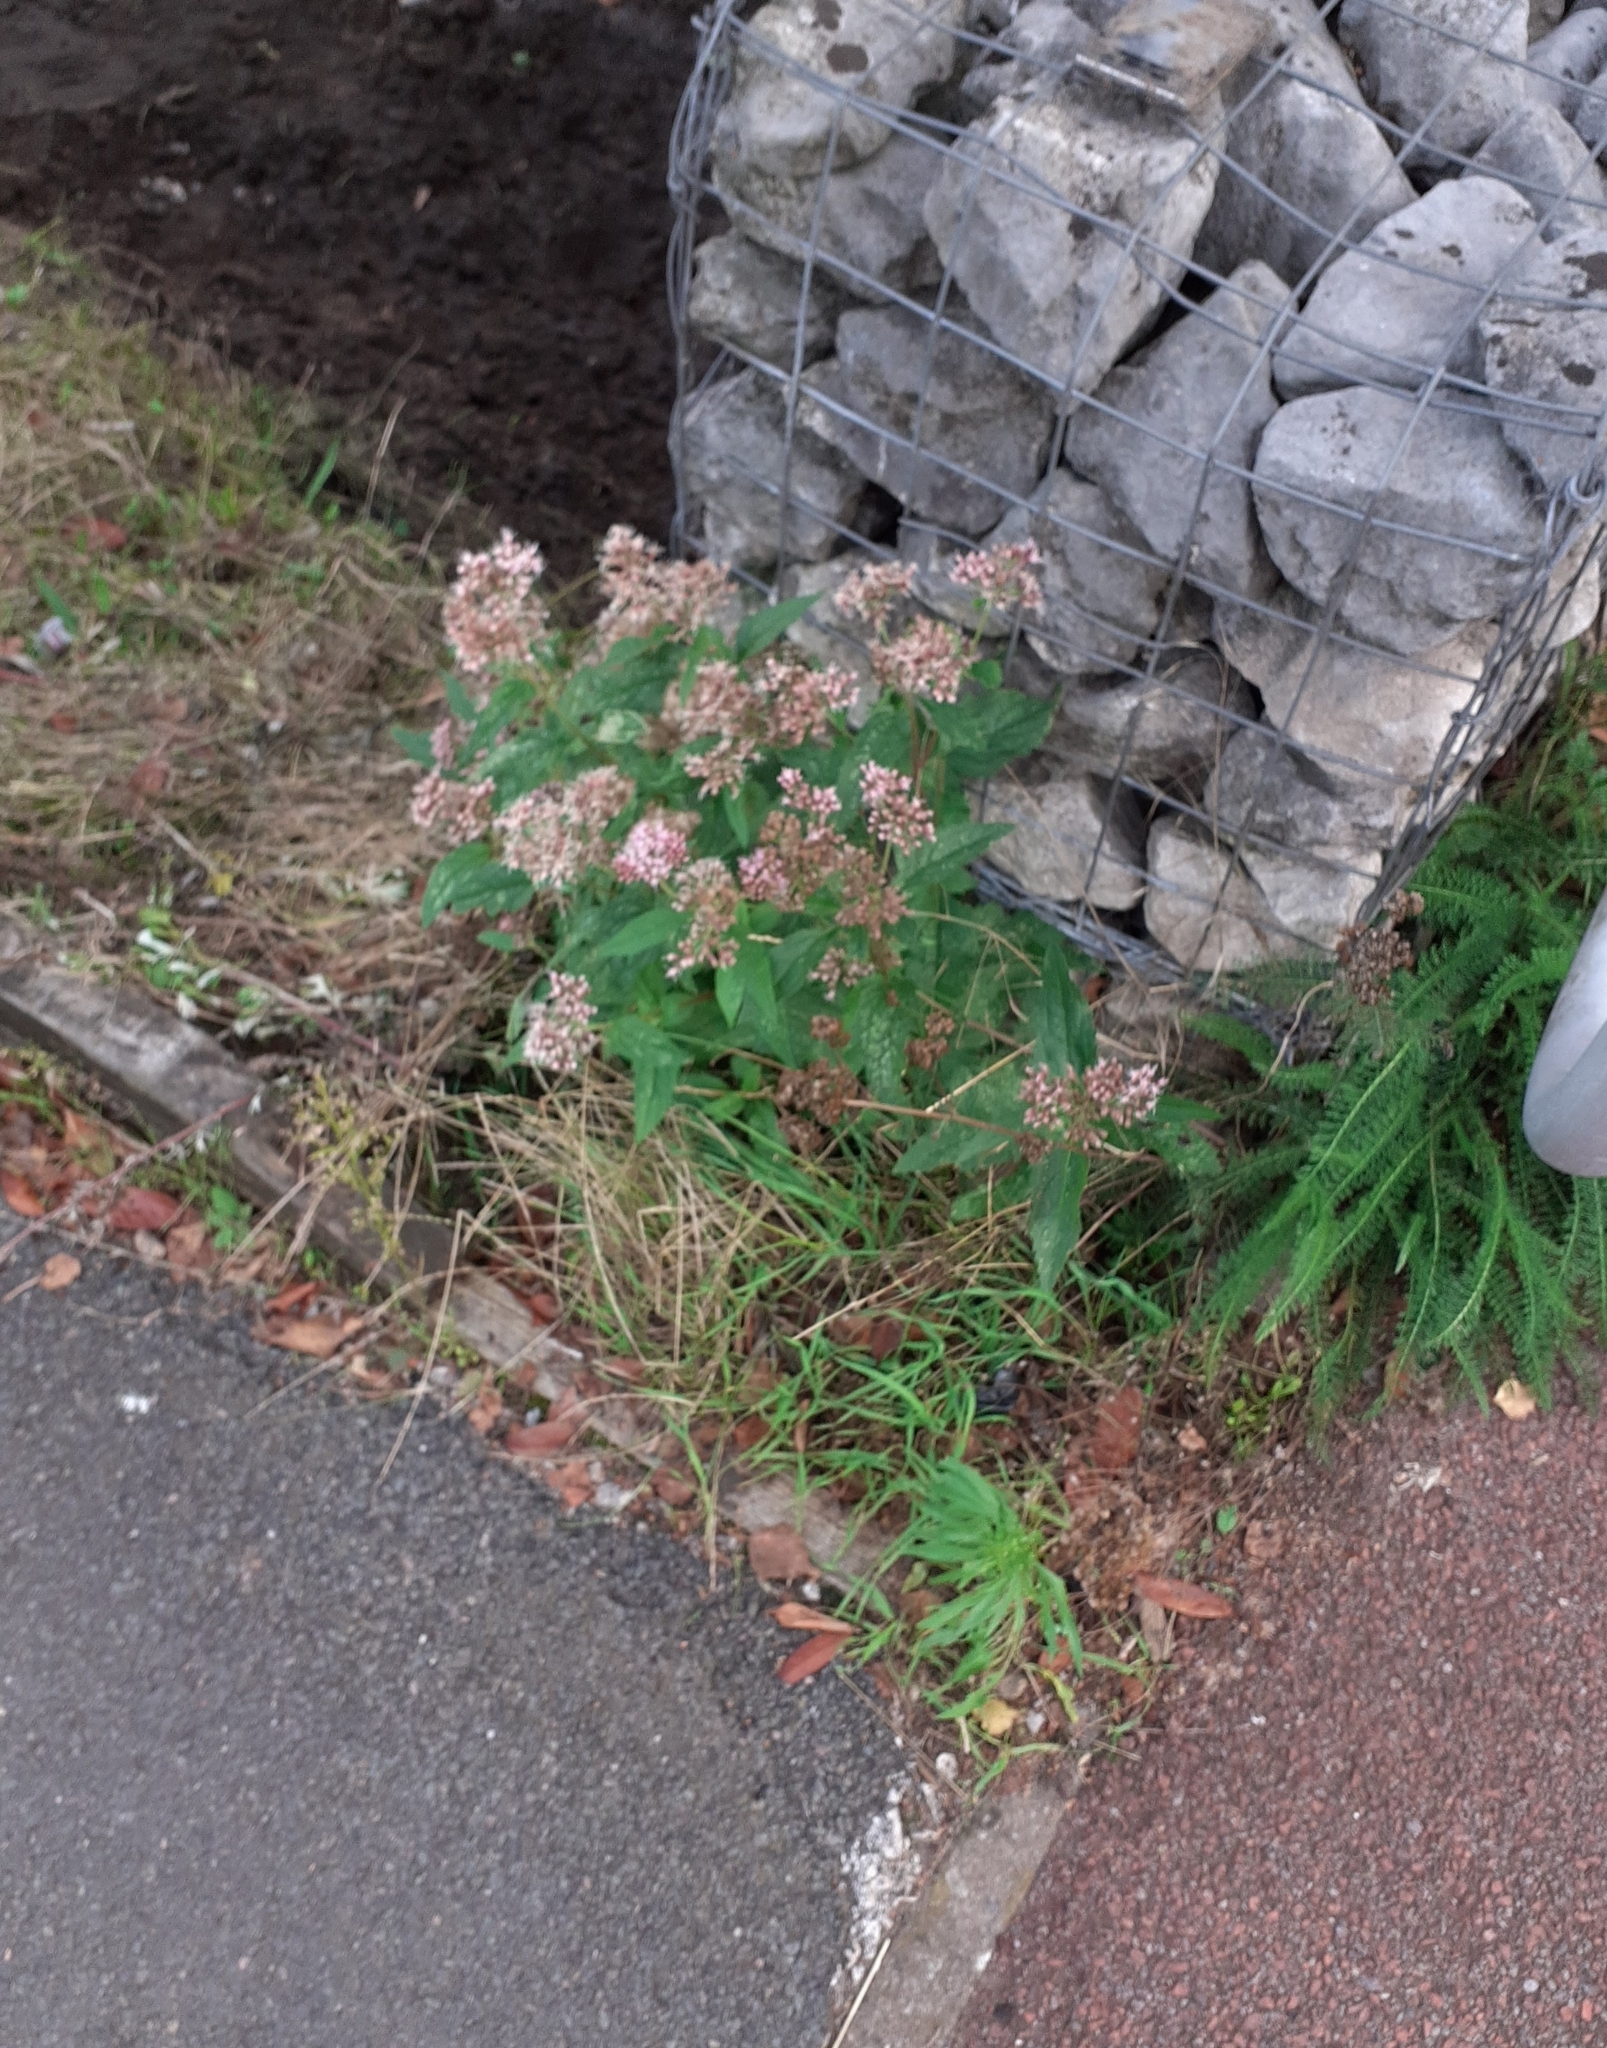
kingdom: Plantae
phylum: Tracheophyta
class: Magnoliopsida
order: Asterales
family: Asteraceae
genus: Eupatorium
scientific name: Eupatorium cannabinum
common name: Hemp-agrimony
